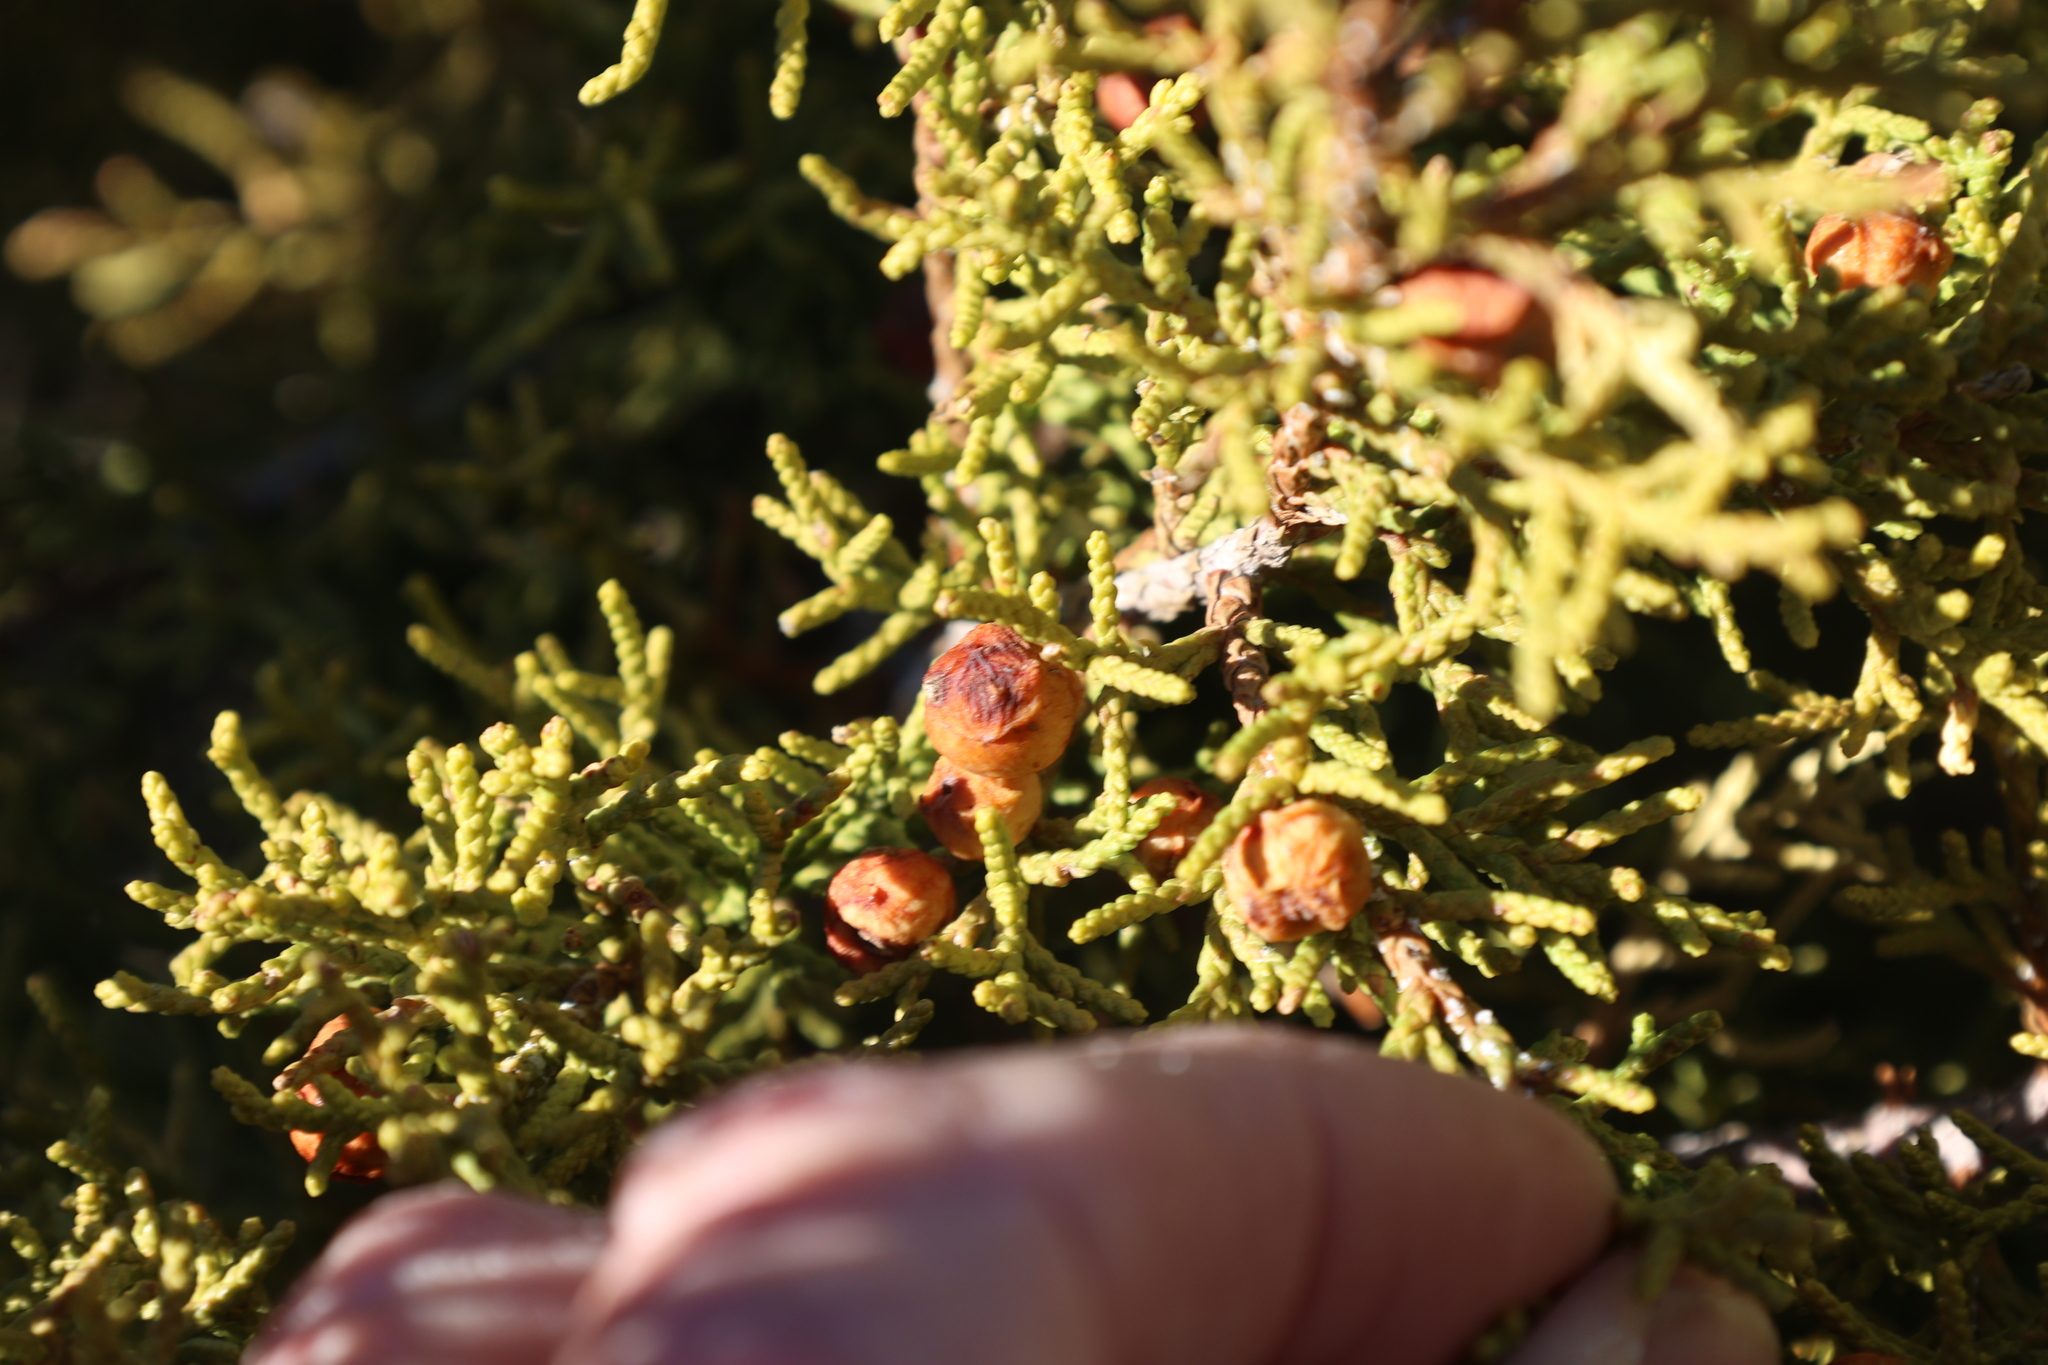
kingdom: Plantae
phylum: Tracheophyta
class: Pinopsida
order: Pinales
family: Cupressaceae
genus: Juniperus
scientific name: Juniperus pinchotii
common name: Pinchot juniper
